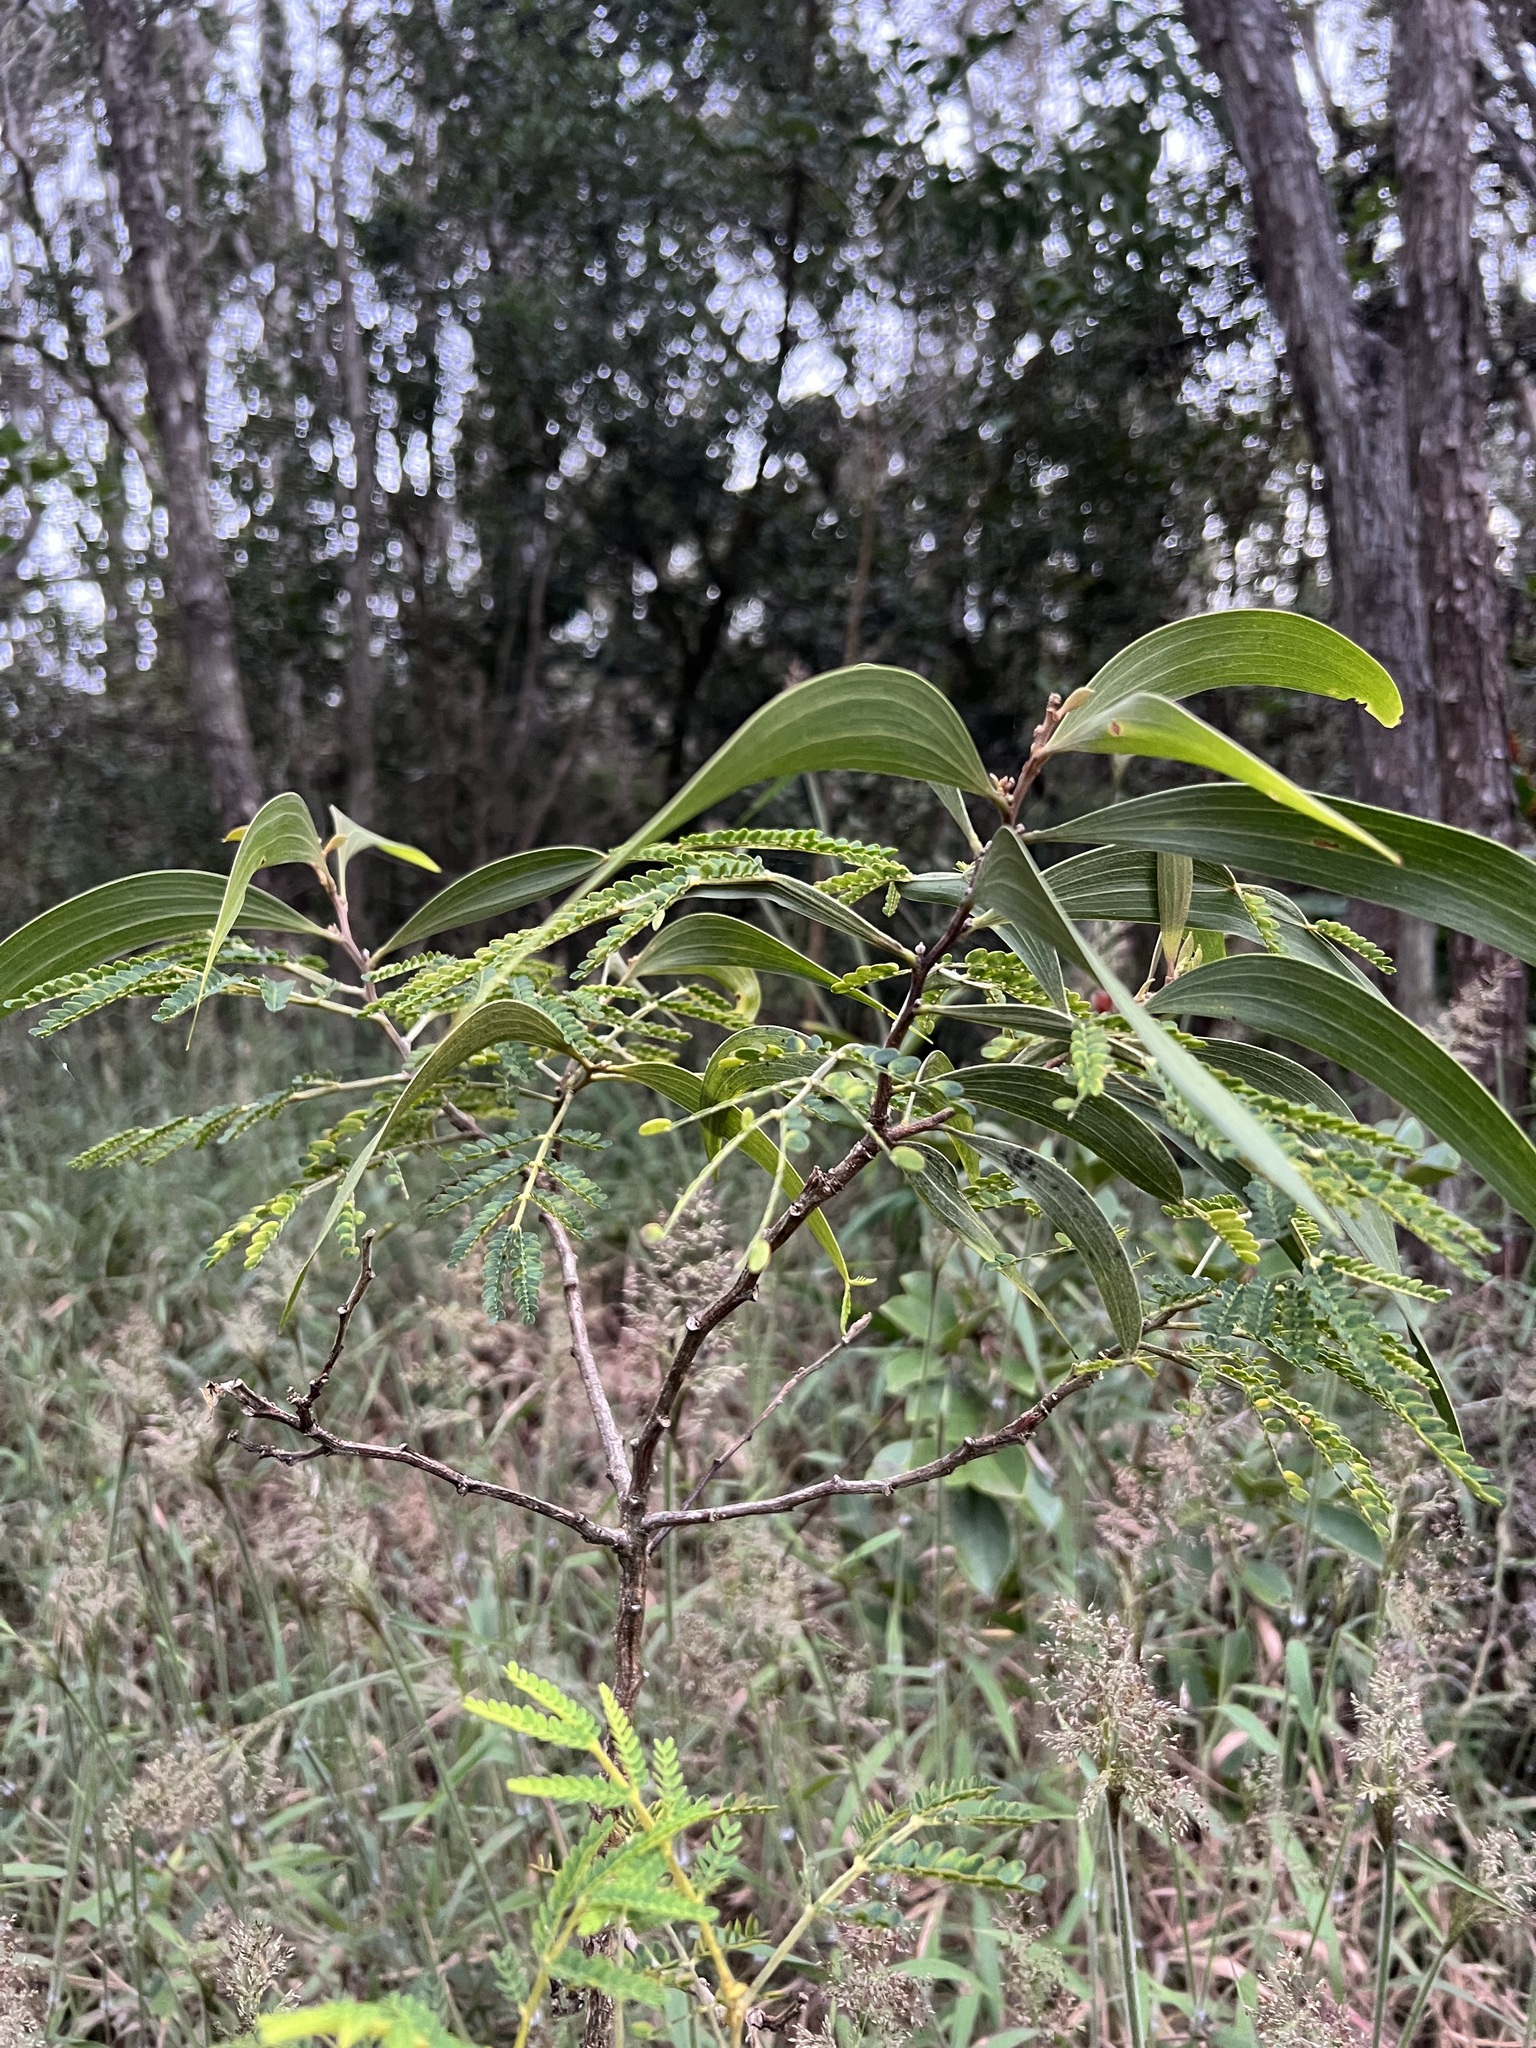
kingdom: Plantae
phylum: Tracheophyta
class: Magnoliopsida
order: Fabales
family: Fabaceae
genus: Acacia
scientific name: Acacia koa
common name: Gray koa
